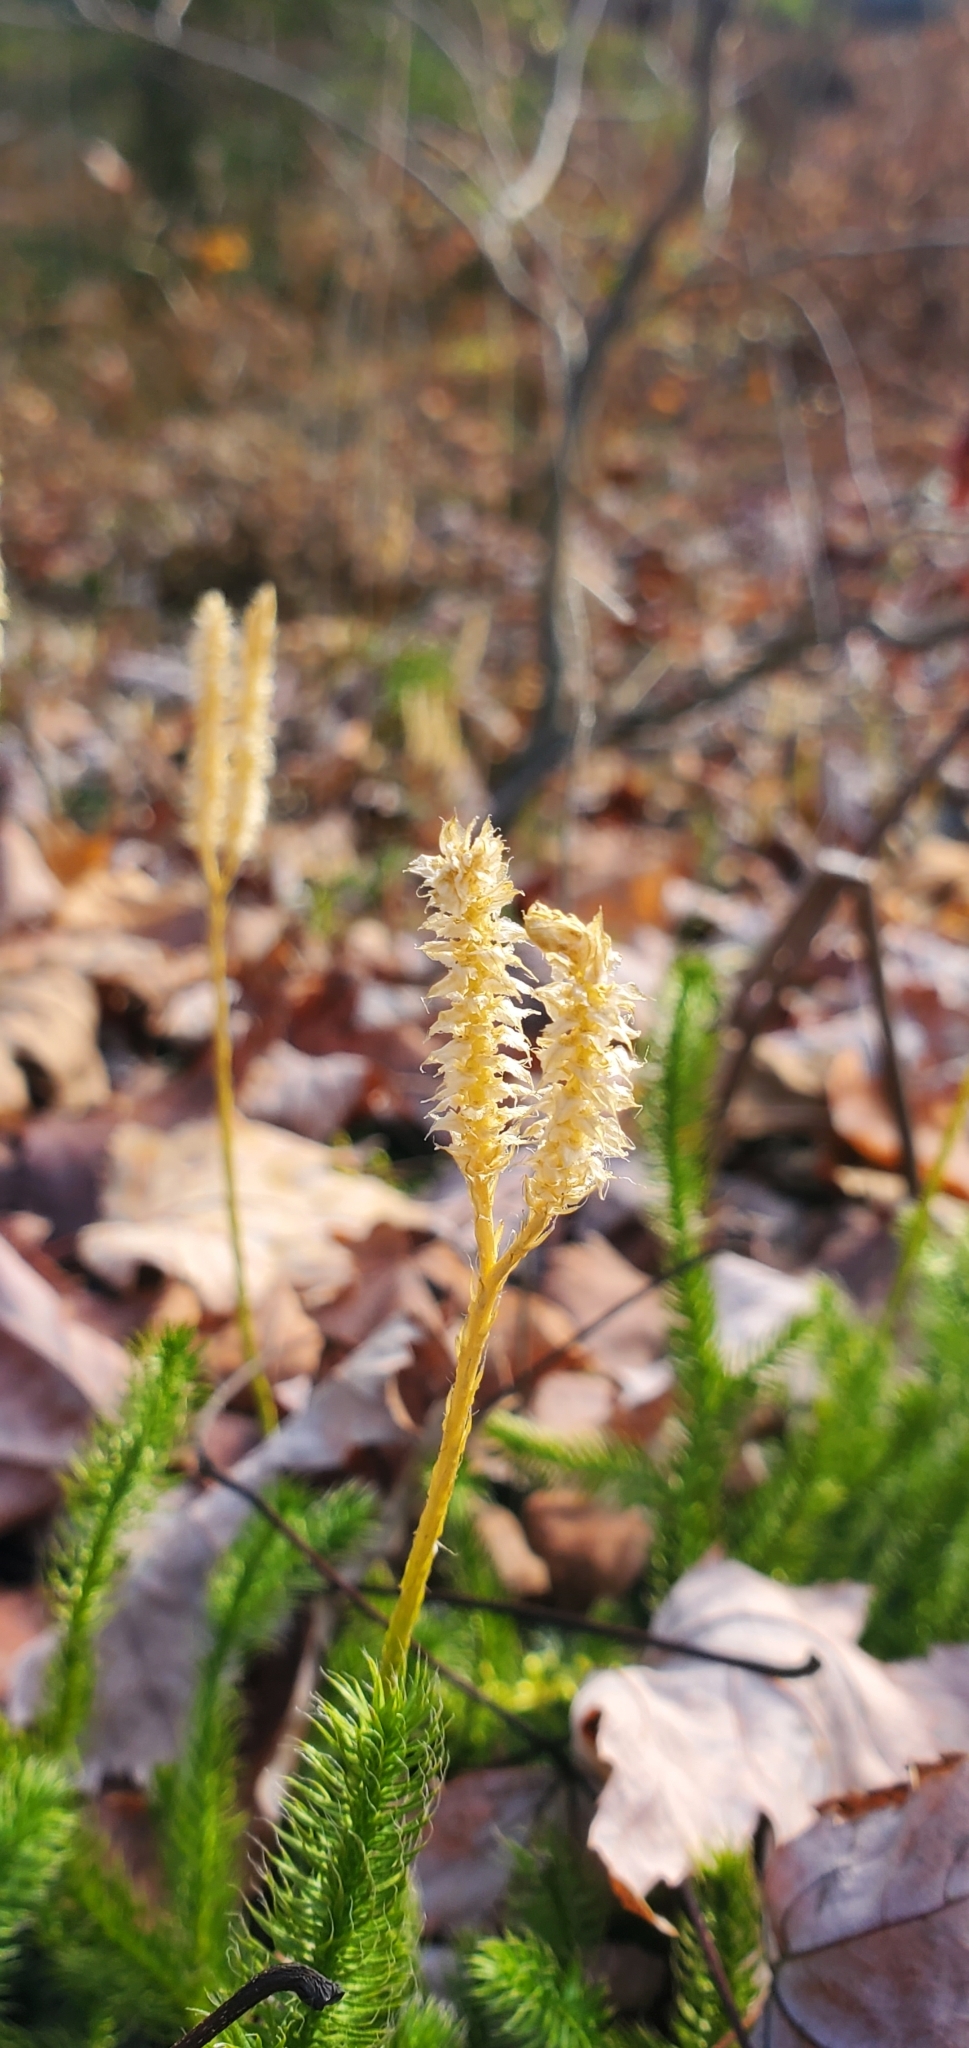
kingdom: Plantae
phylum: Tracheophyta
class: Lycopodiopsida
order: Lycopodiales
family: Lycopodiaceae
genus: Lycopodium
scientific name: Lycopodium clavatum
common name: Stag's-horn clubmoss
